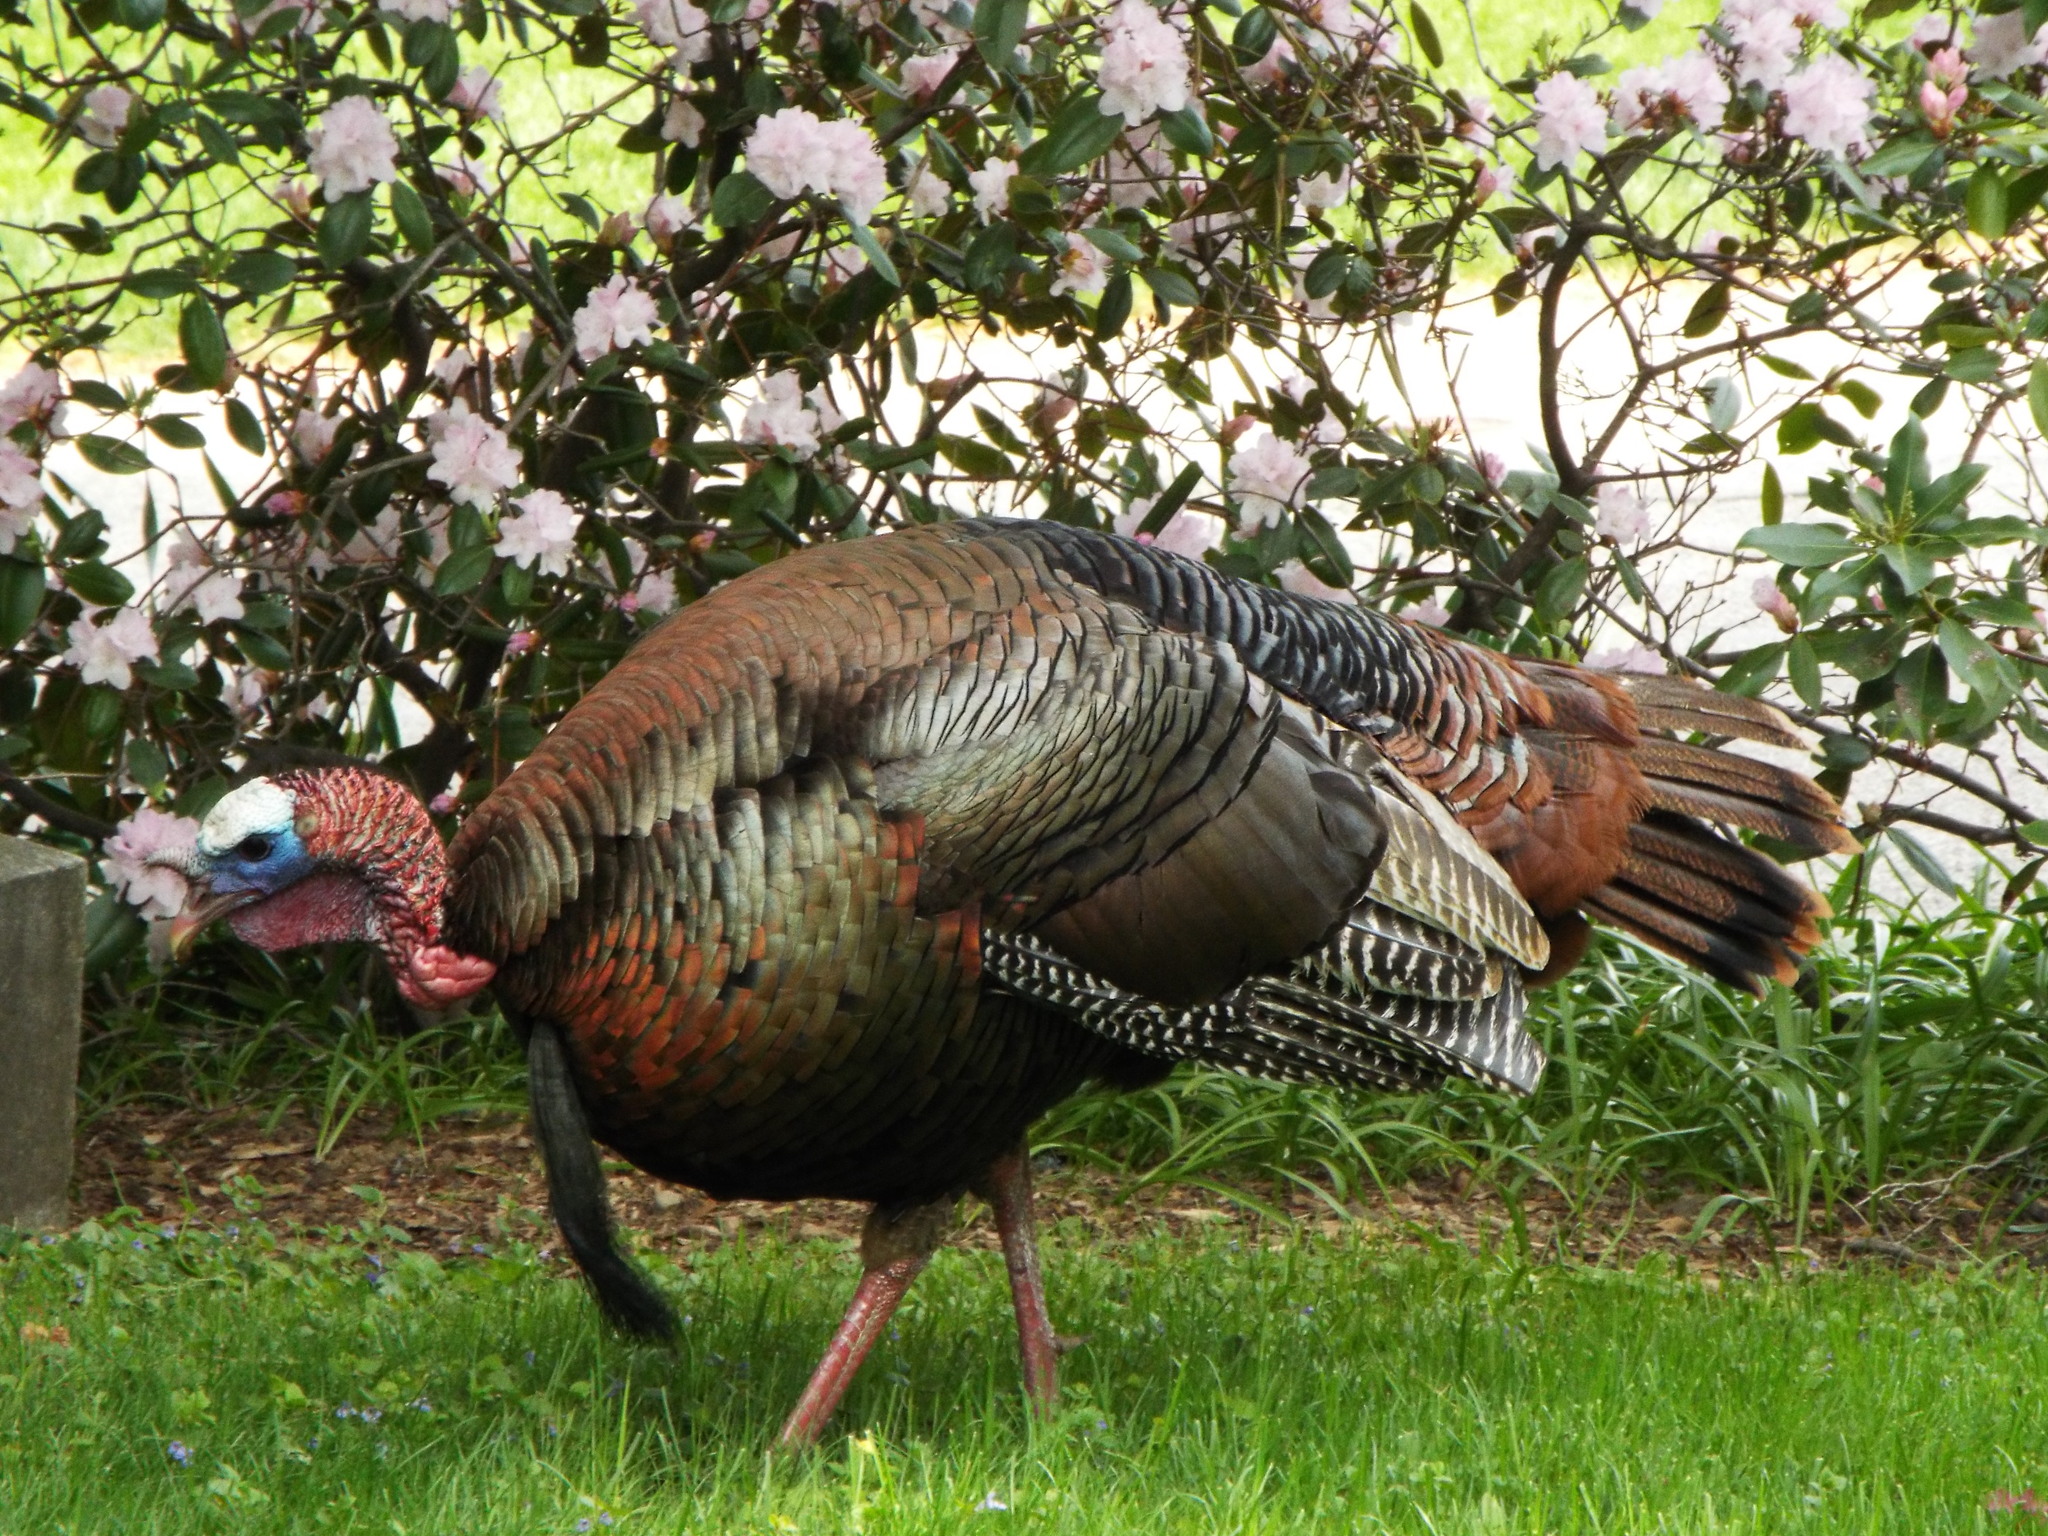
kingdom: Animalia
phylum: Chordata
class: Aves
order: Galliformes
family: Phasianidae
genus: Meleagris
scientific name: Meleagris gallopavo
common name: Wild turkey
